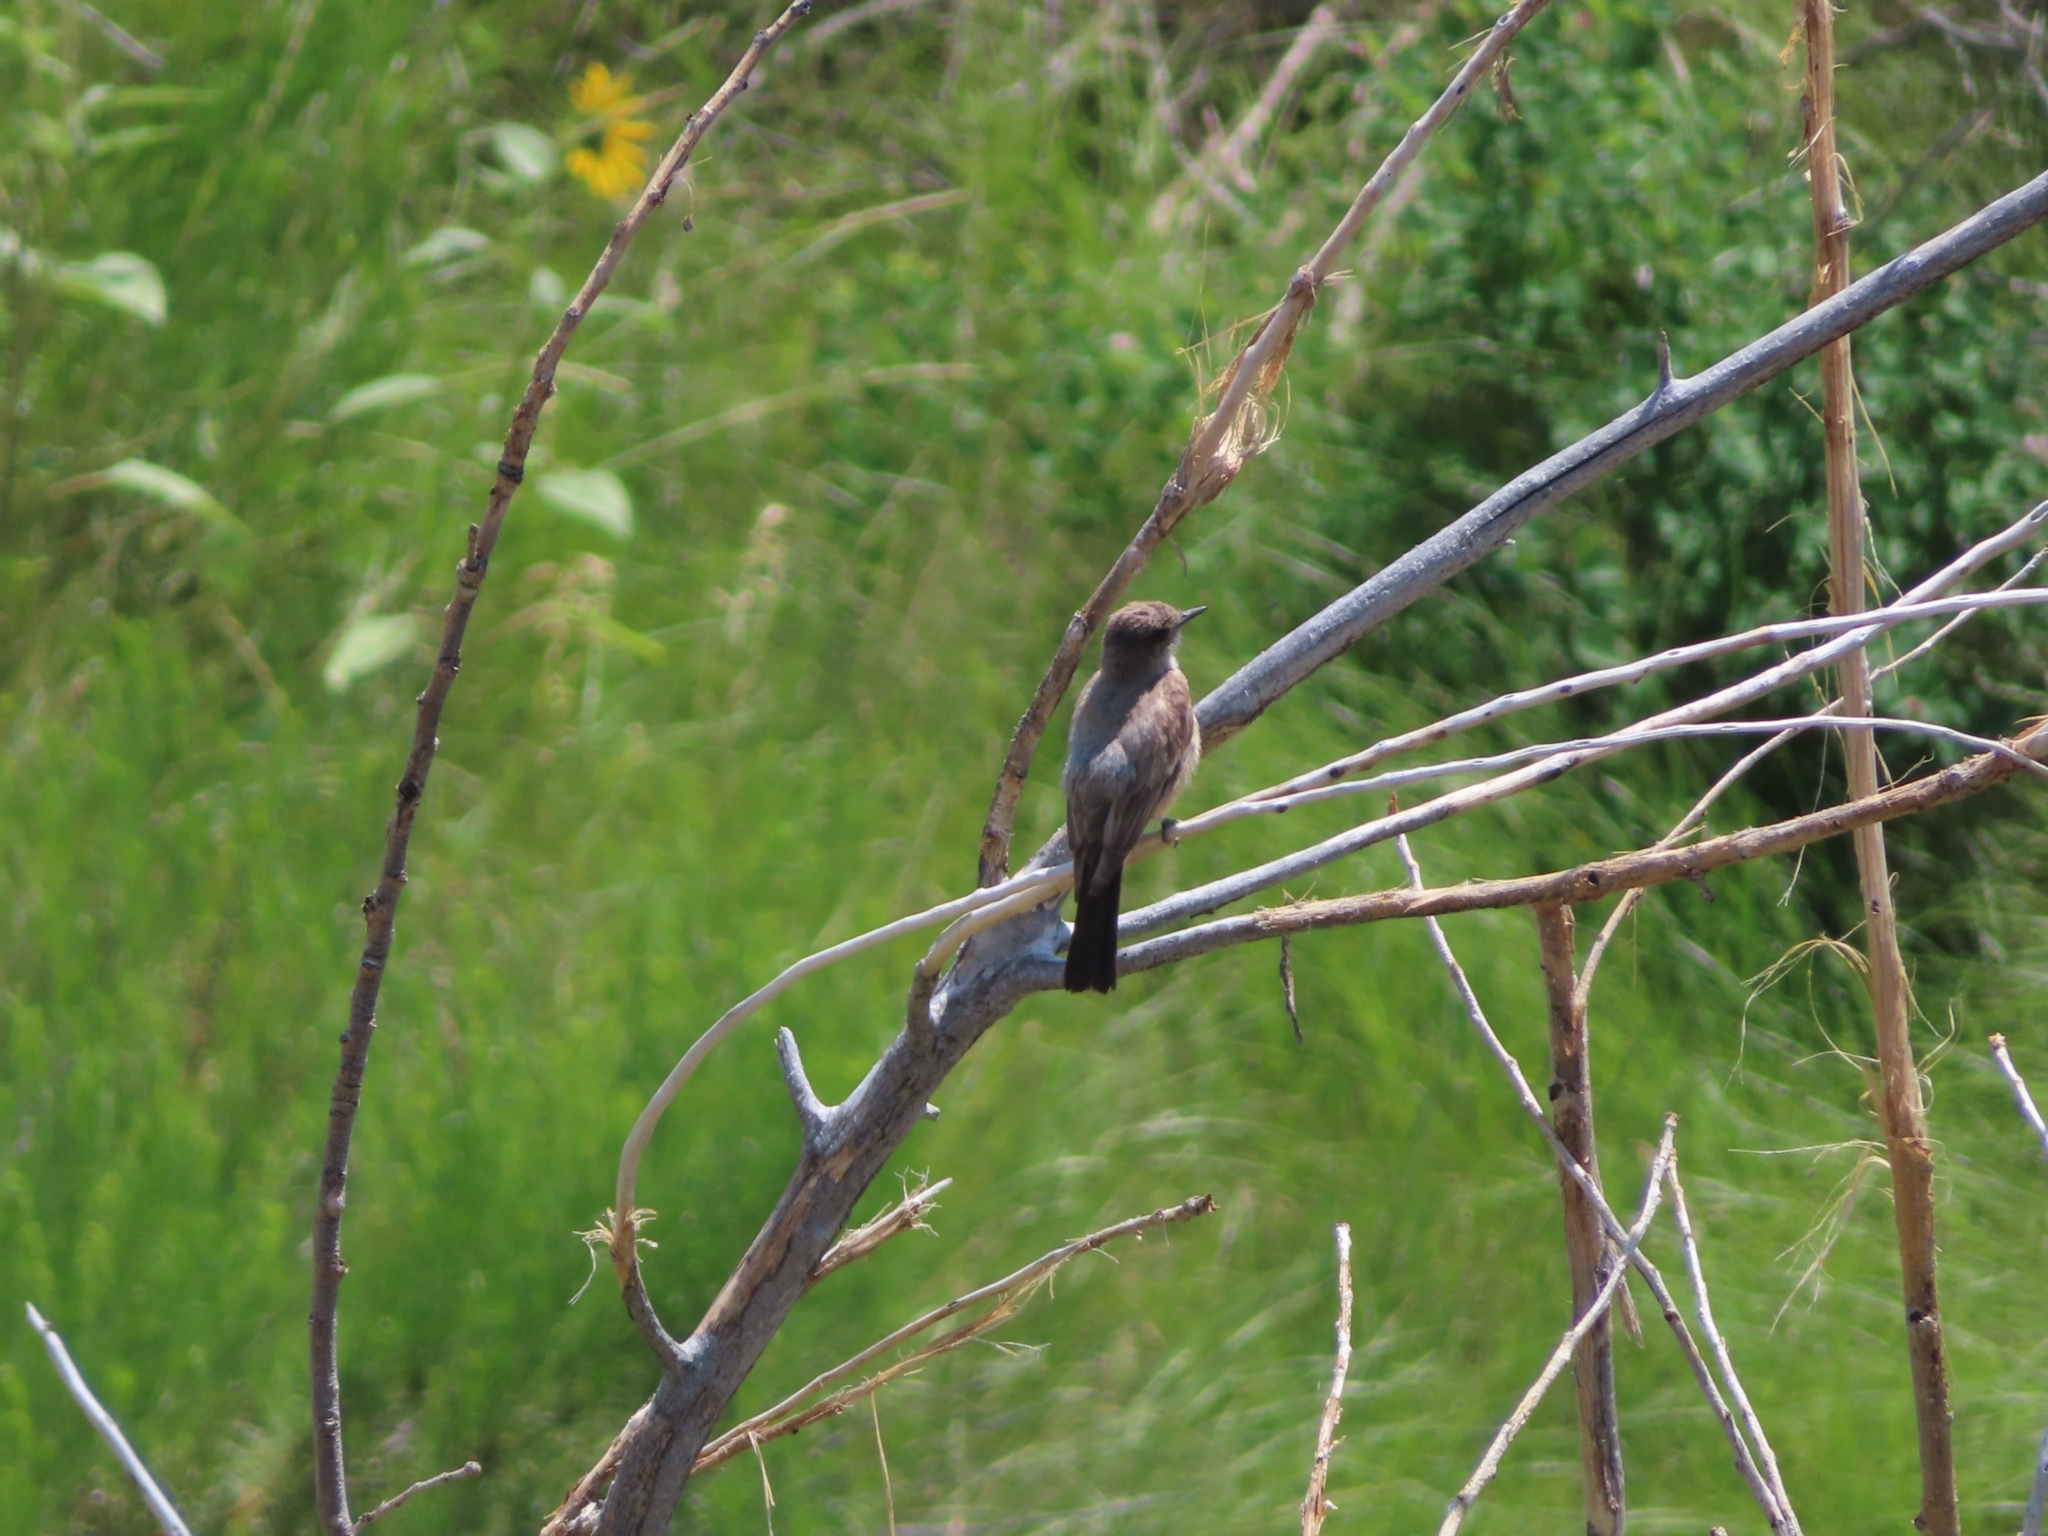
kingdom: Animalia
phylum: Chordata
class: Aves
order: Passeriformes
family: Tyrannidae
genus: Sayornis
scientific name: Sayornis saya
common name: Say's phoebe
